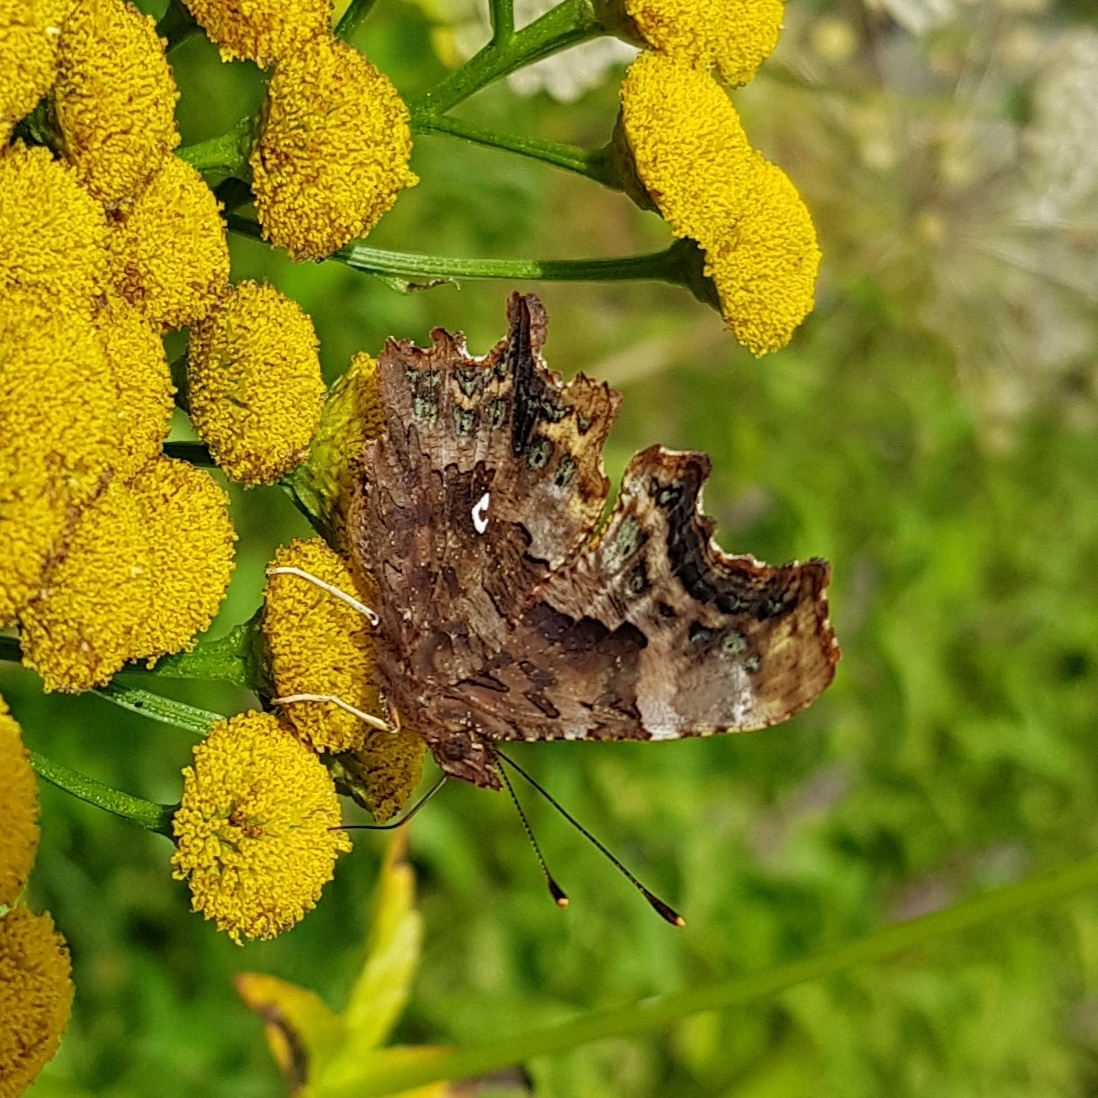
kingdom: Animalia
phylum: Arthropoda
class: Insecta
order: Lepidoptera
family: Nymphalidae
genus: Polygonia
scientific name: Polygonia c-album
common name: Comma
